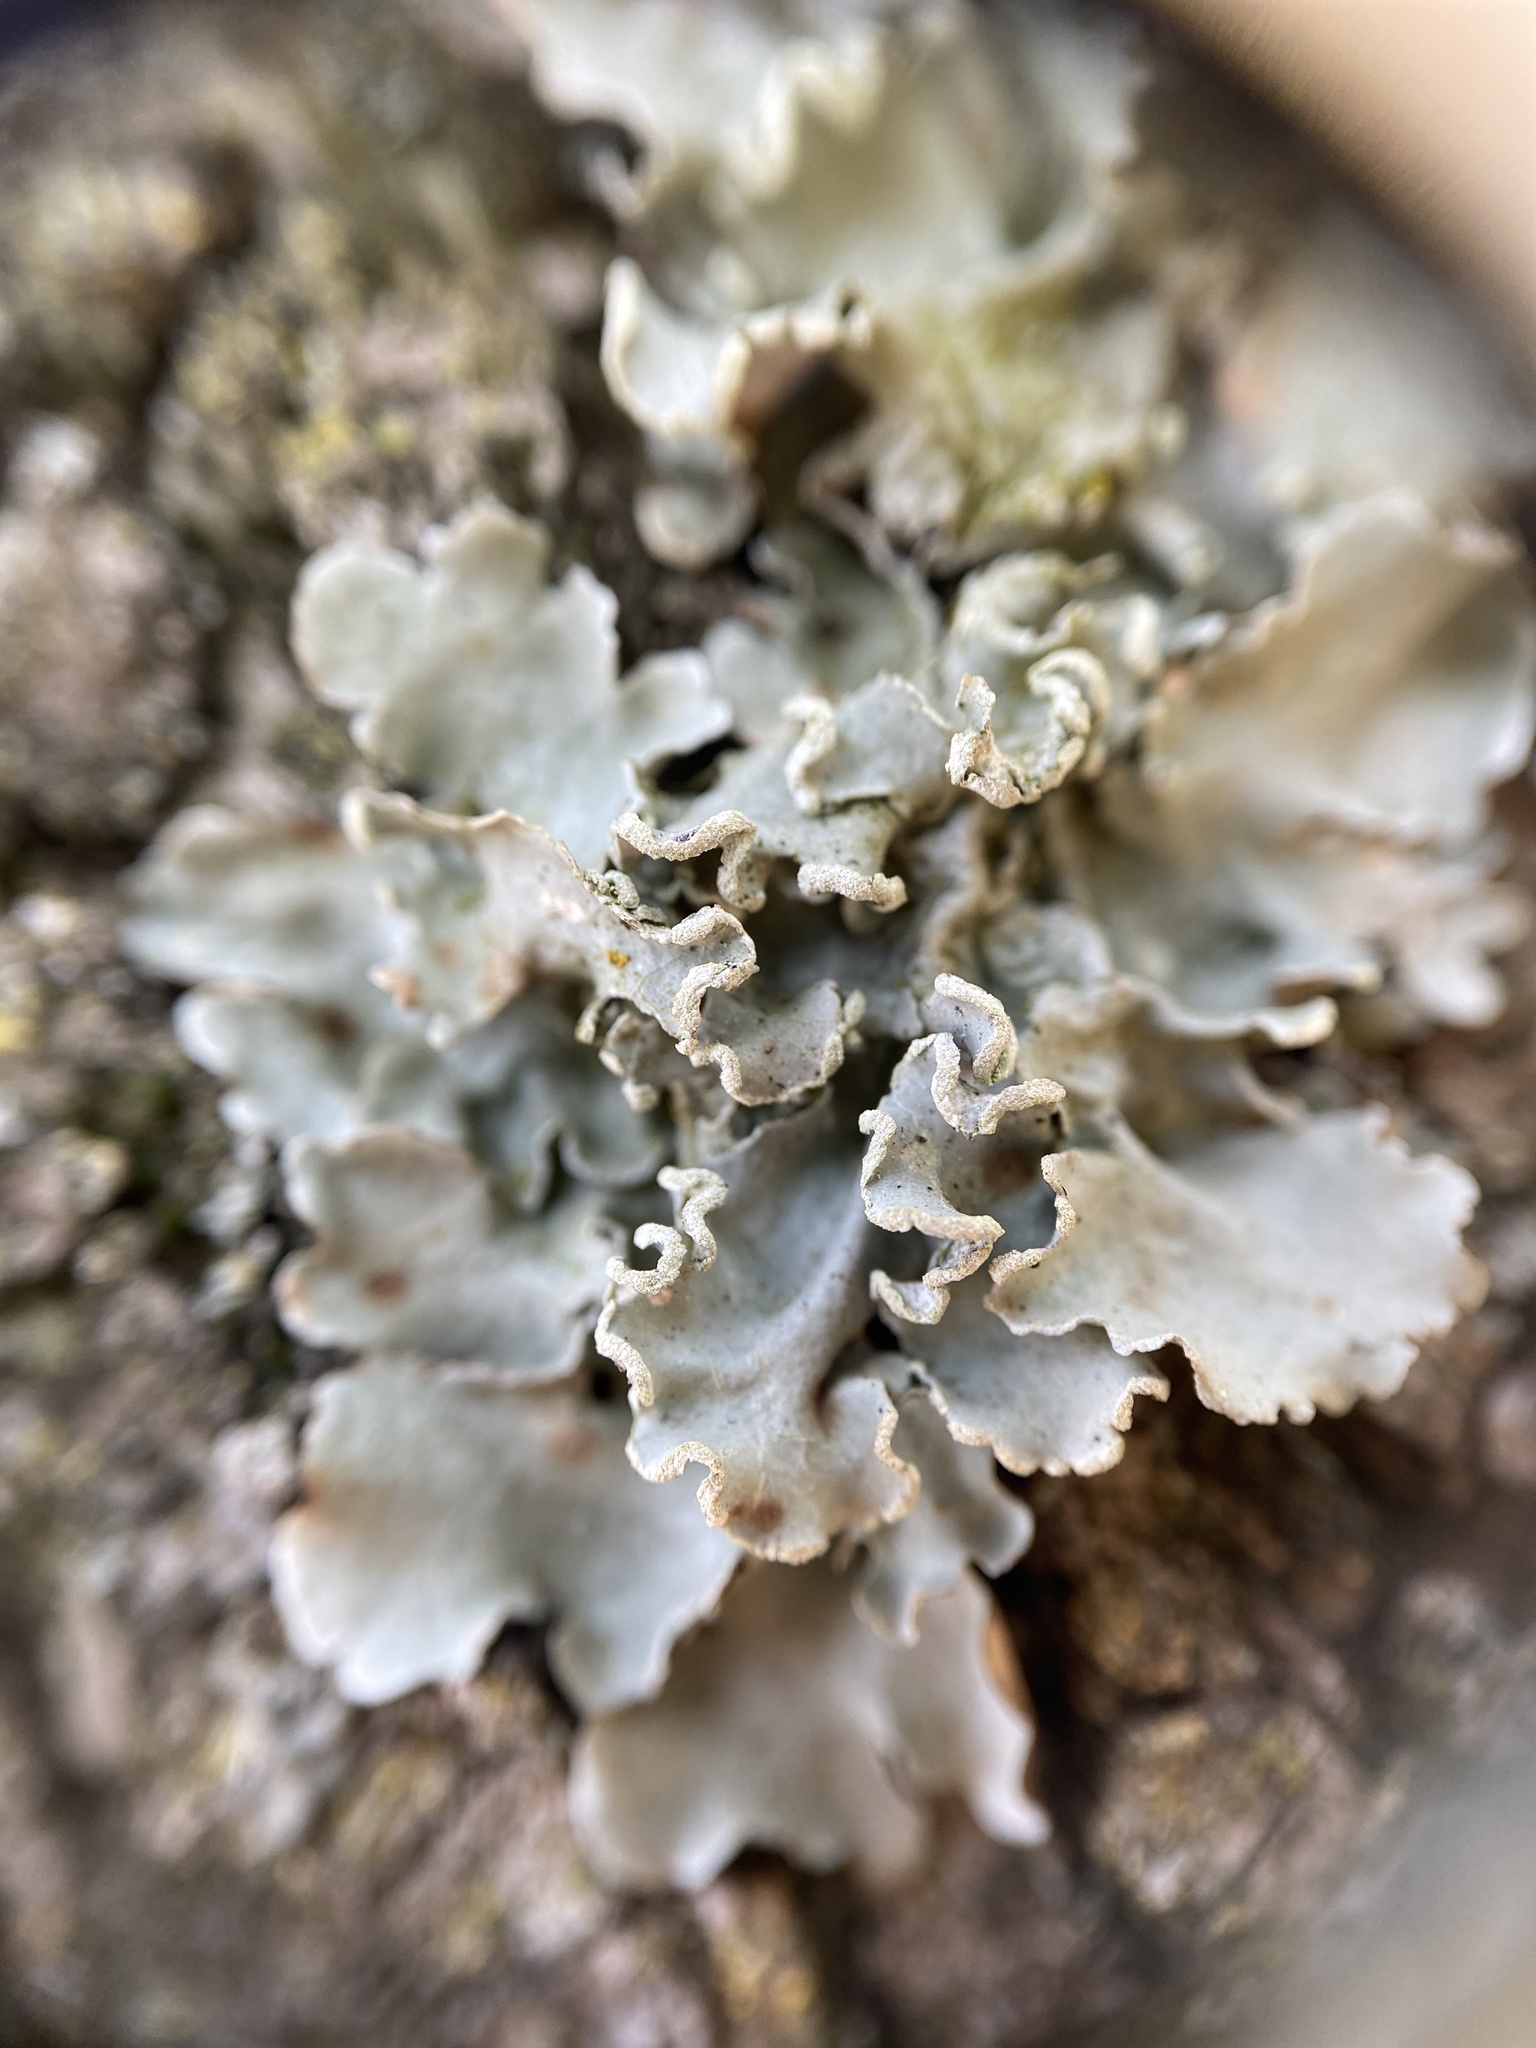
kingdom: Fungi
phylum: Ascomycota
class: Lecanoromycetes
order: Lecanorales
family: Parmeliaceae
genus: Parmotrema
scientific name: Parmotrema austrosinense
